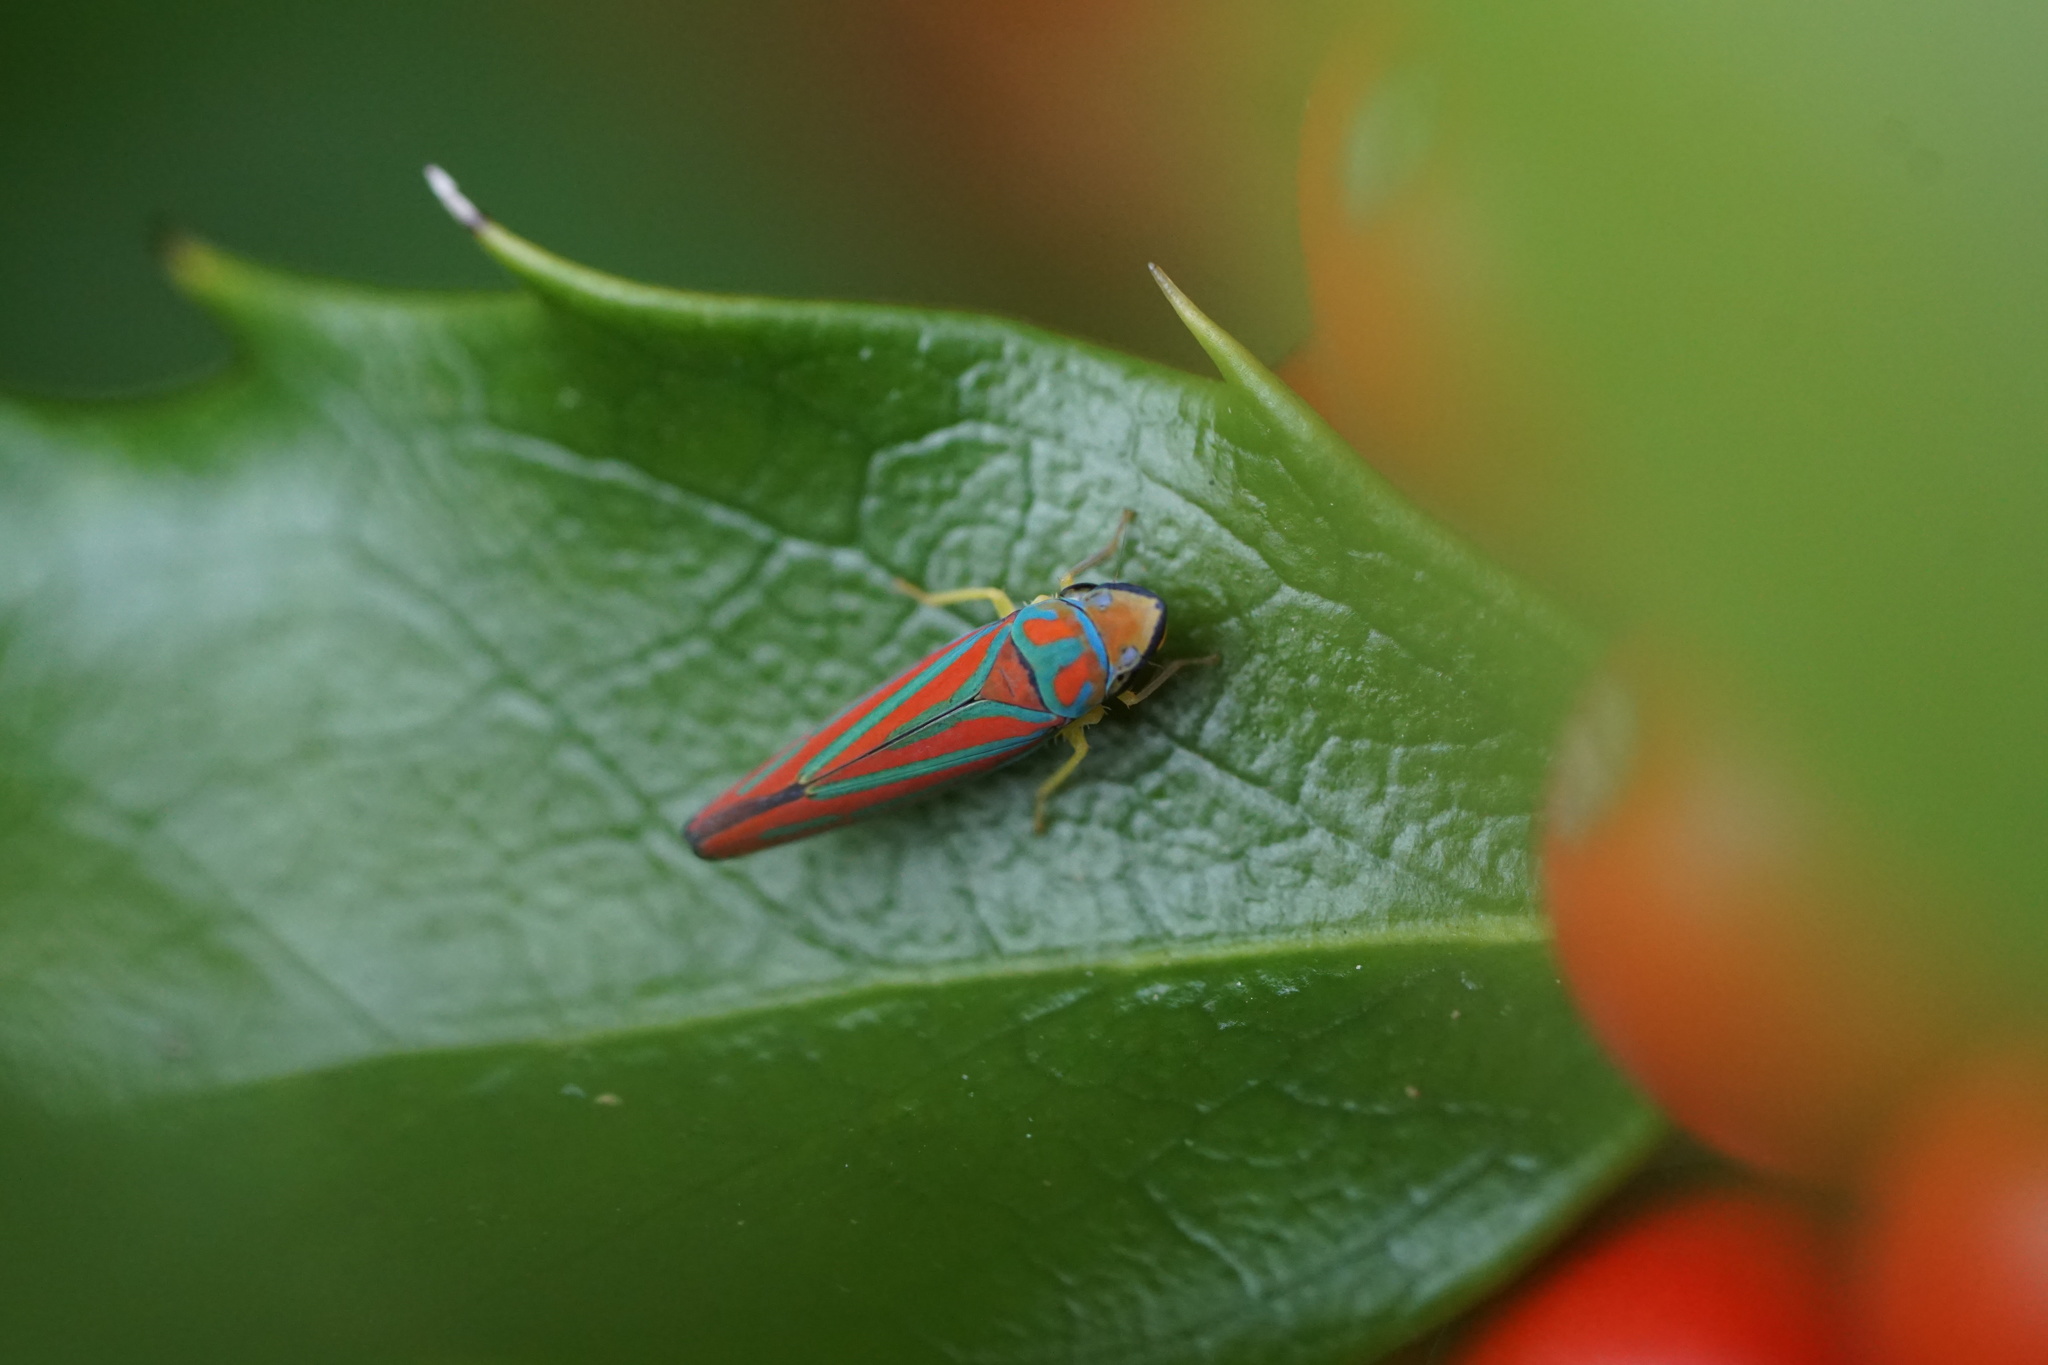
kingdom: Animalia
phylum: Arthropoda
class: Insecta
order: Hemiptera
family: Cicadellidae
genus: Graphocephala
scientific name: Graphocephala coccinea
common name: Candy-striped leafhopper
